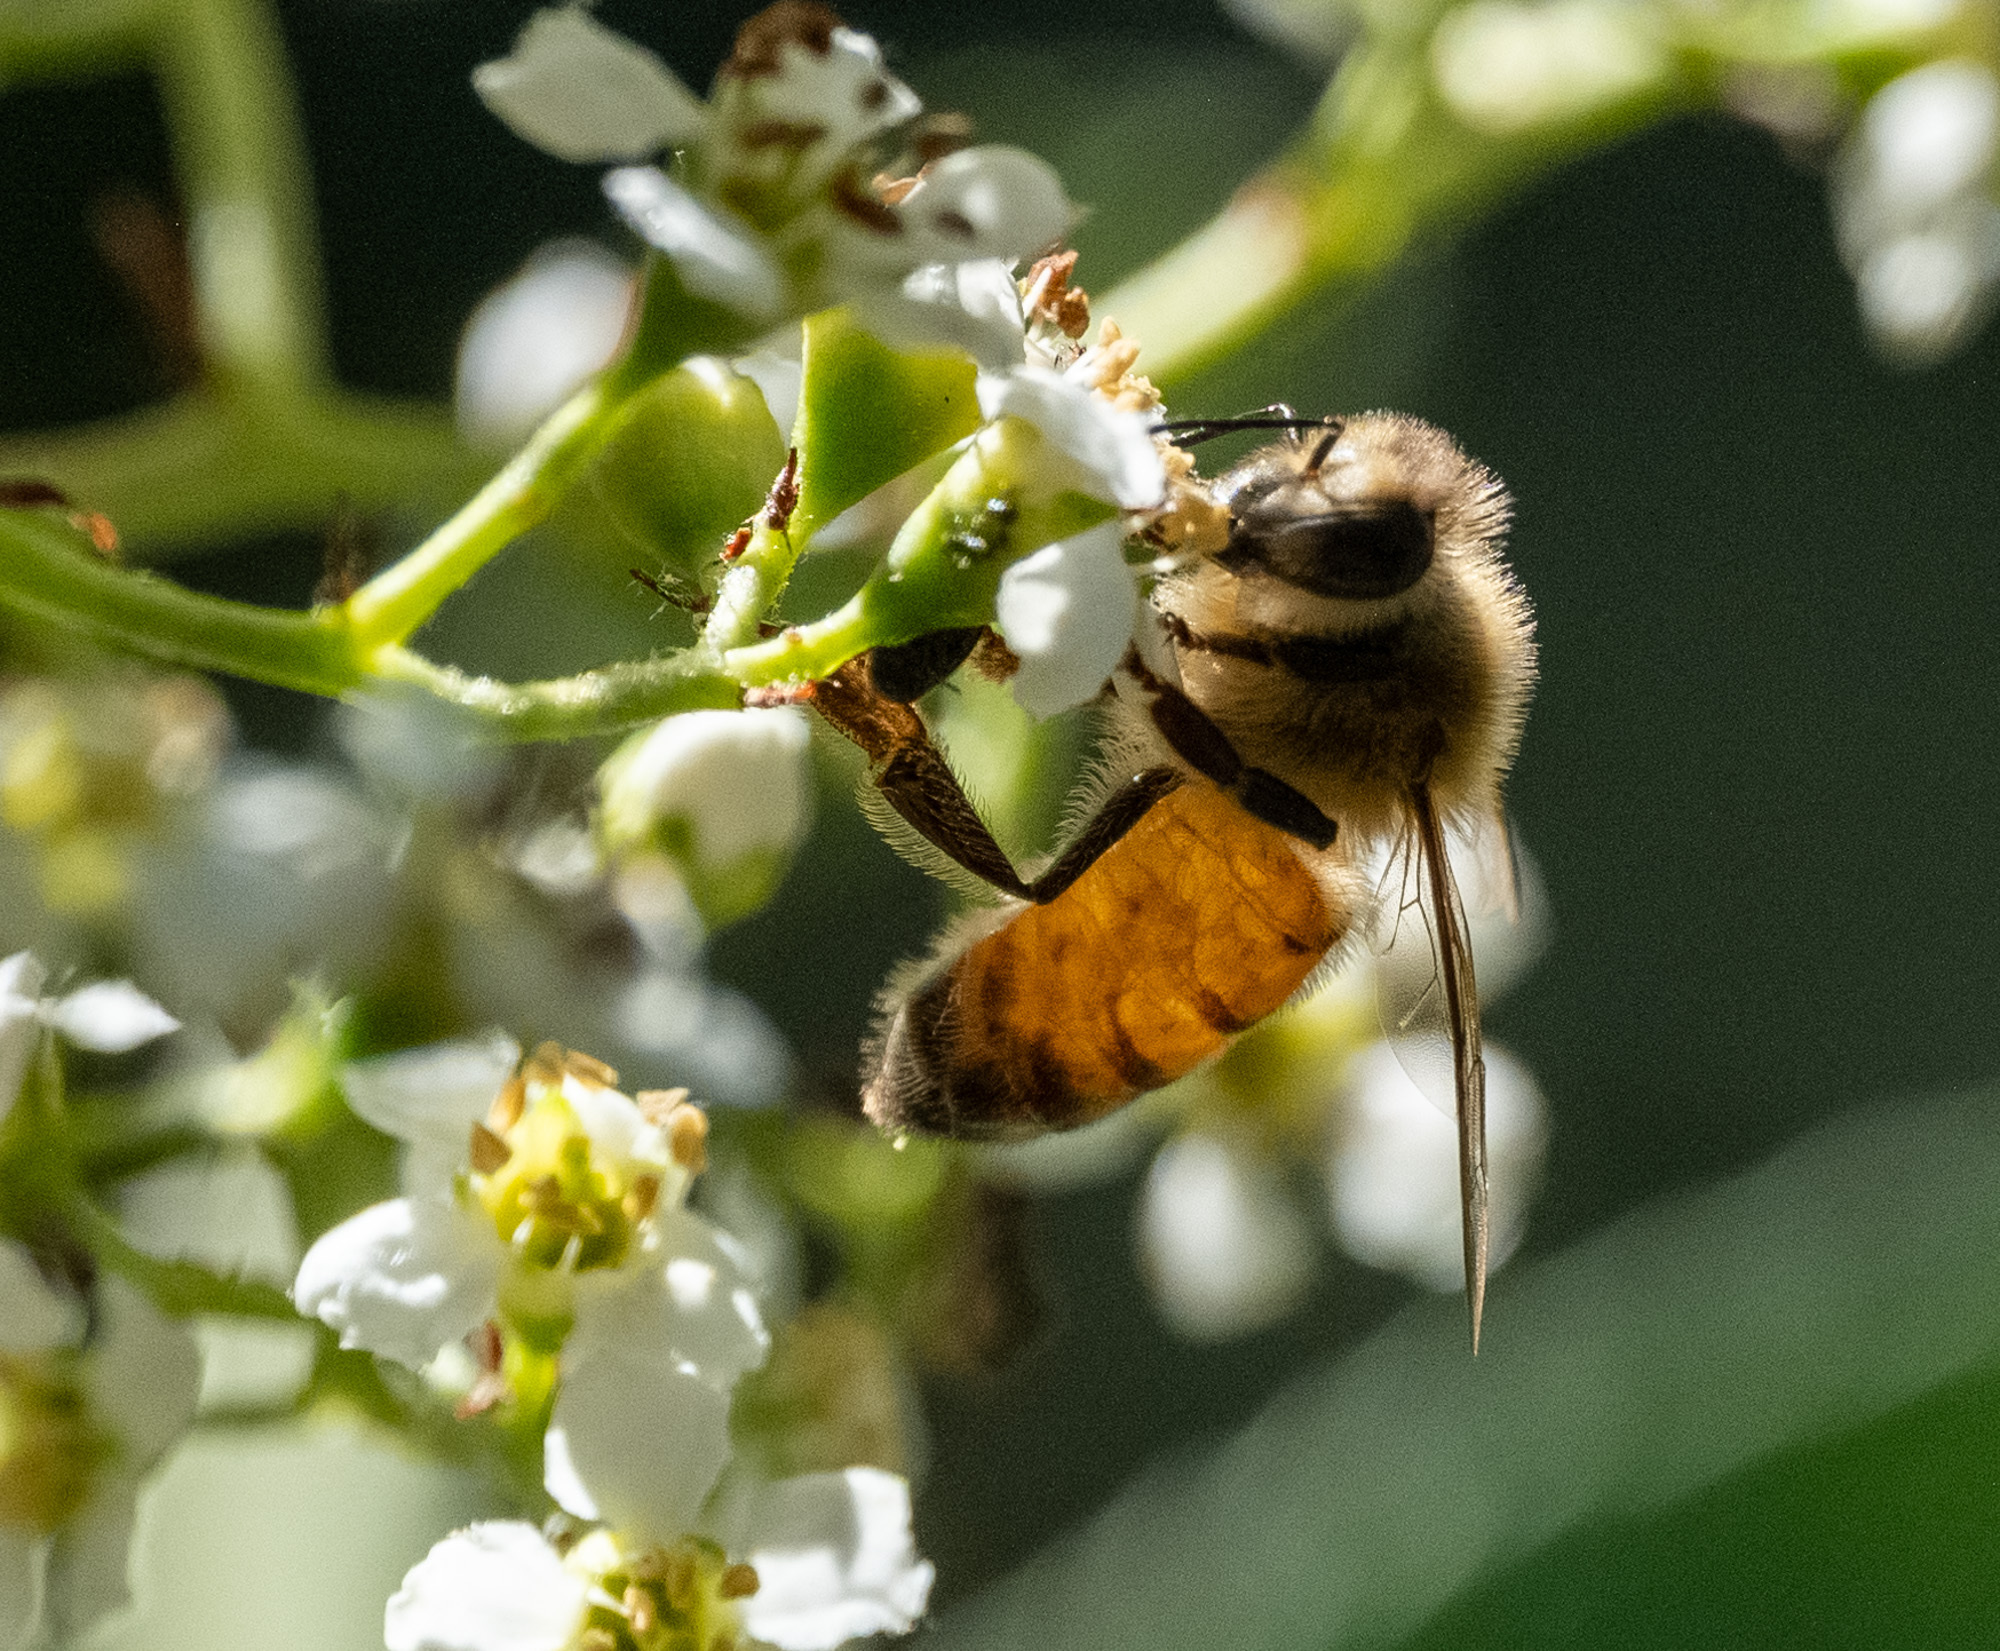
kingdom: Animalia
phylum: Arthropoda
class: Insecta
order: Hymenoptera
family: Apidae
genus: Apis
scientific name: Apis mellifera
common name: Honey bee
